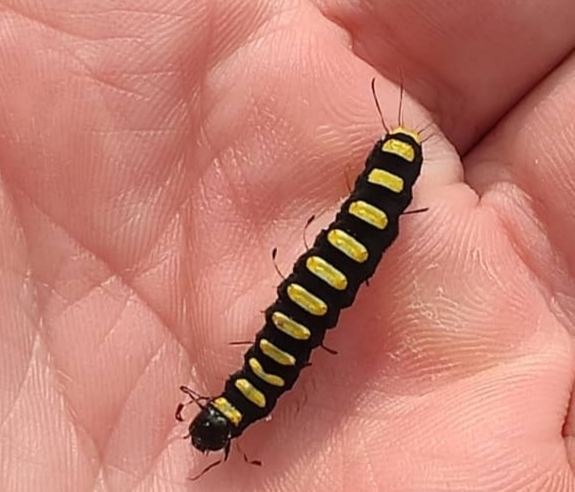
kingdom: Animalia
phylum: Arthropoda
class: Insecta
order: Lepidoptera
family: Noctuidae
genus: Acronicta
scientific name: Acronicta alni
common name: Alder moth
